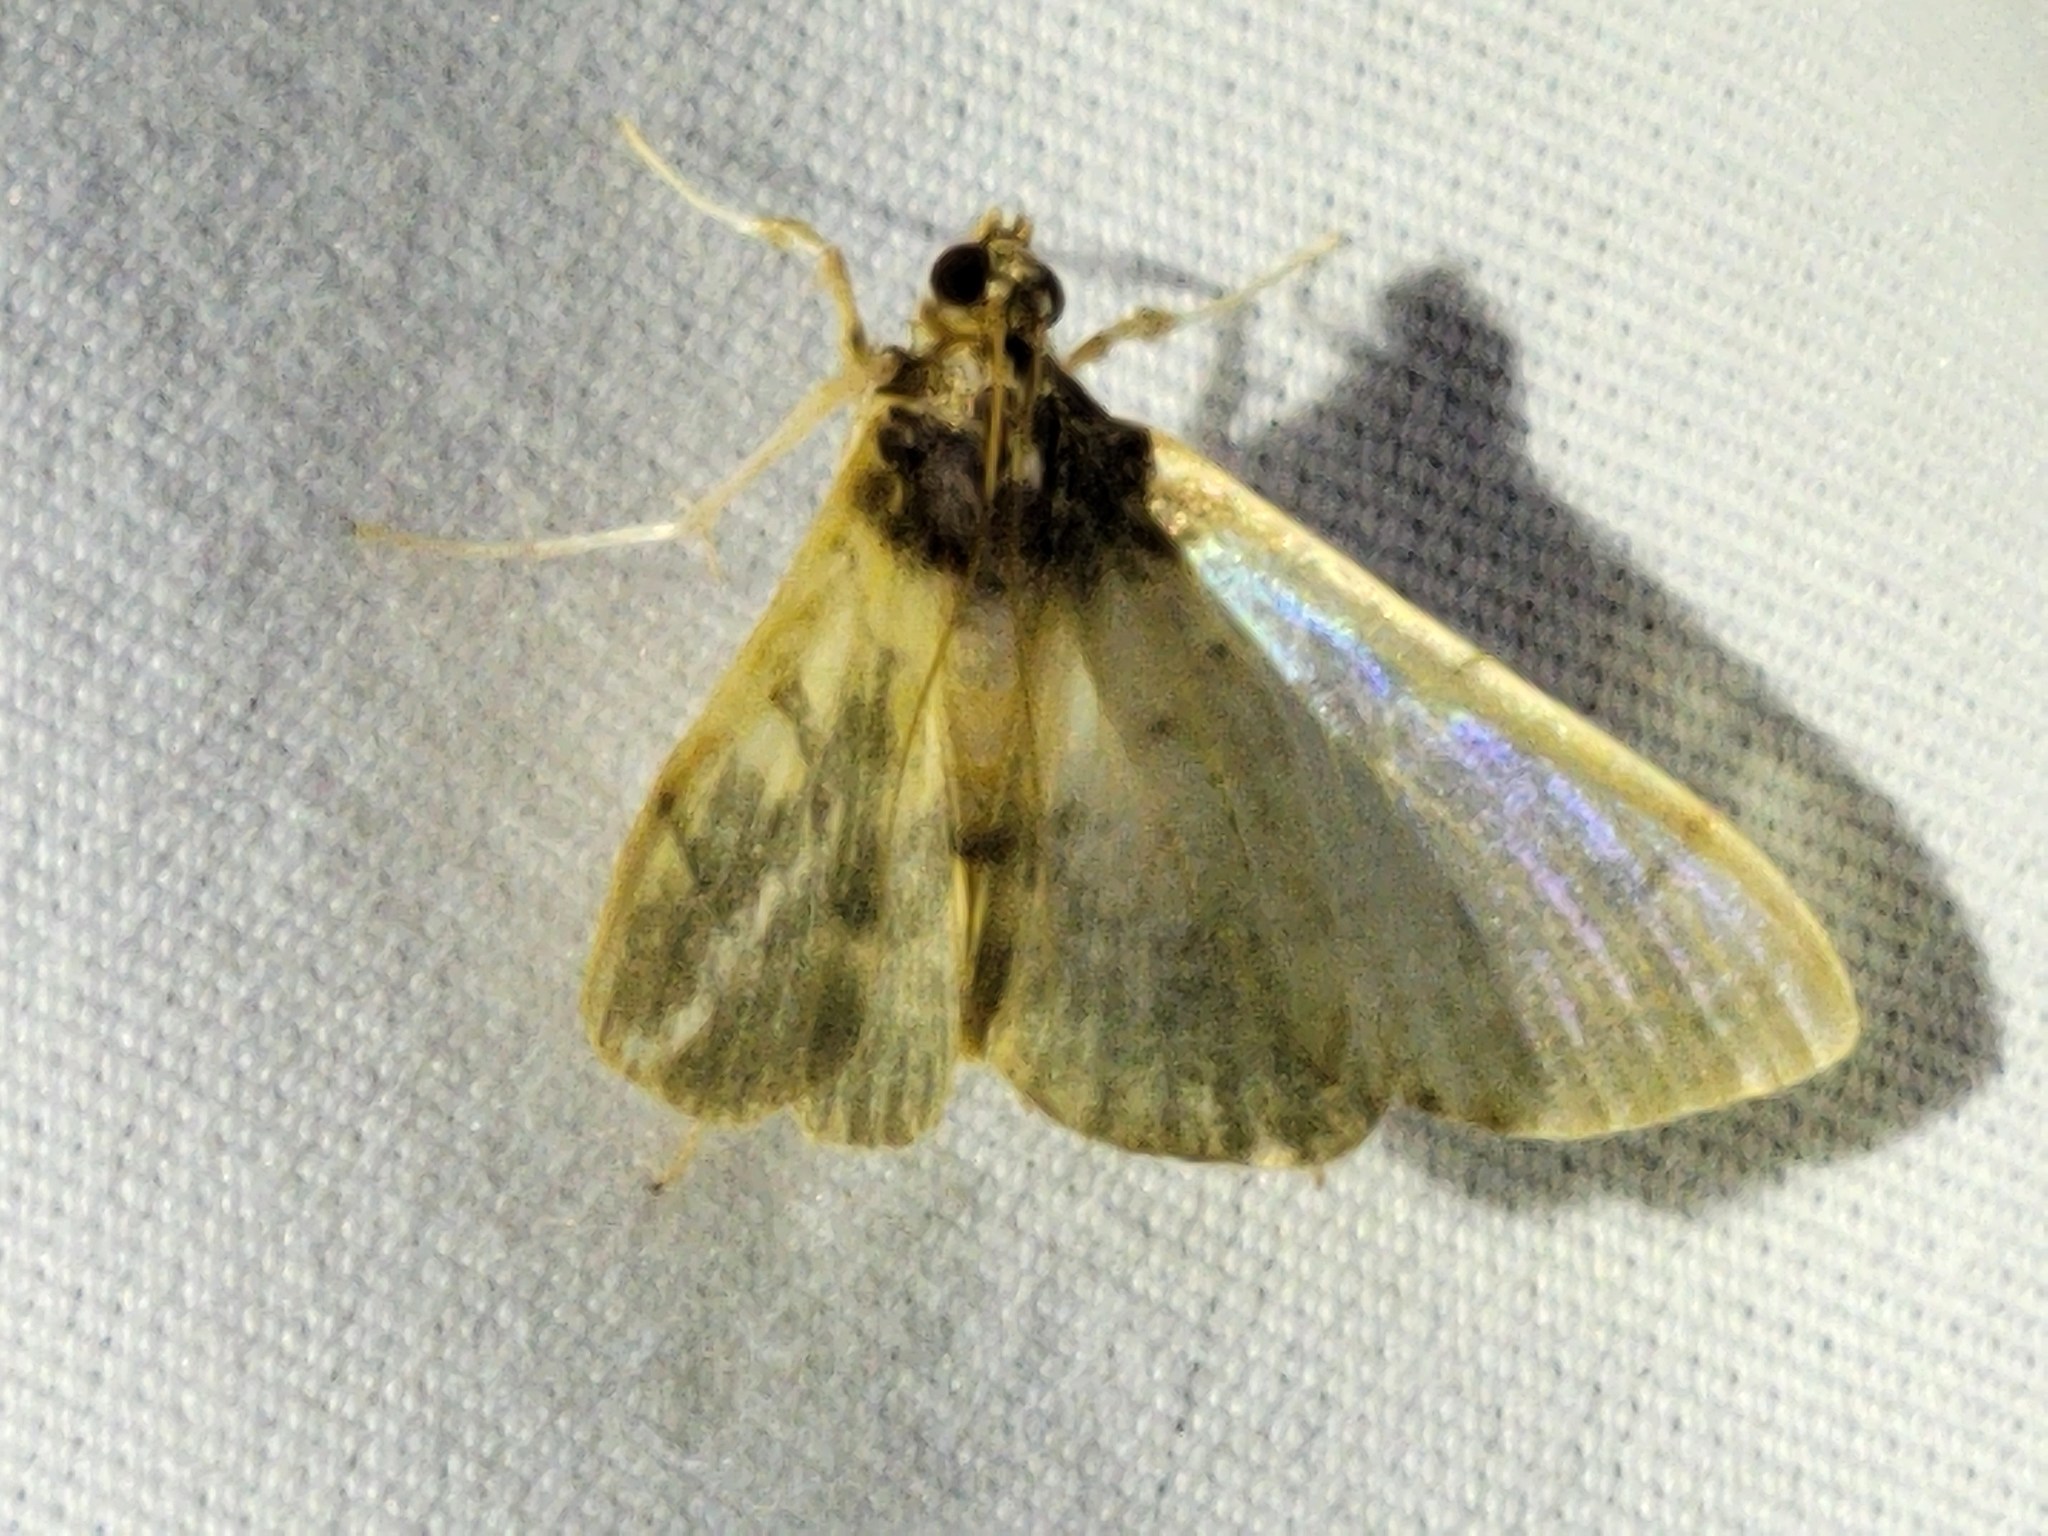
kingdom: Animalia
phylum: Arthropoda
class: Insecta
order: Lepidoptera
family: Crambidae
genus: Apilocrocis
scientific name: Apilocrocis brumalis
